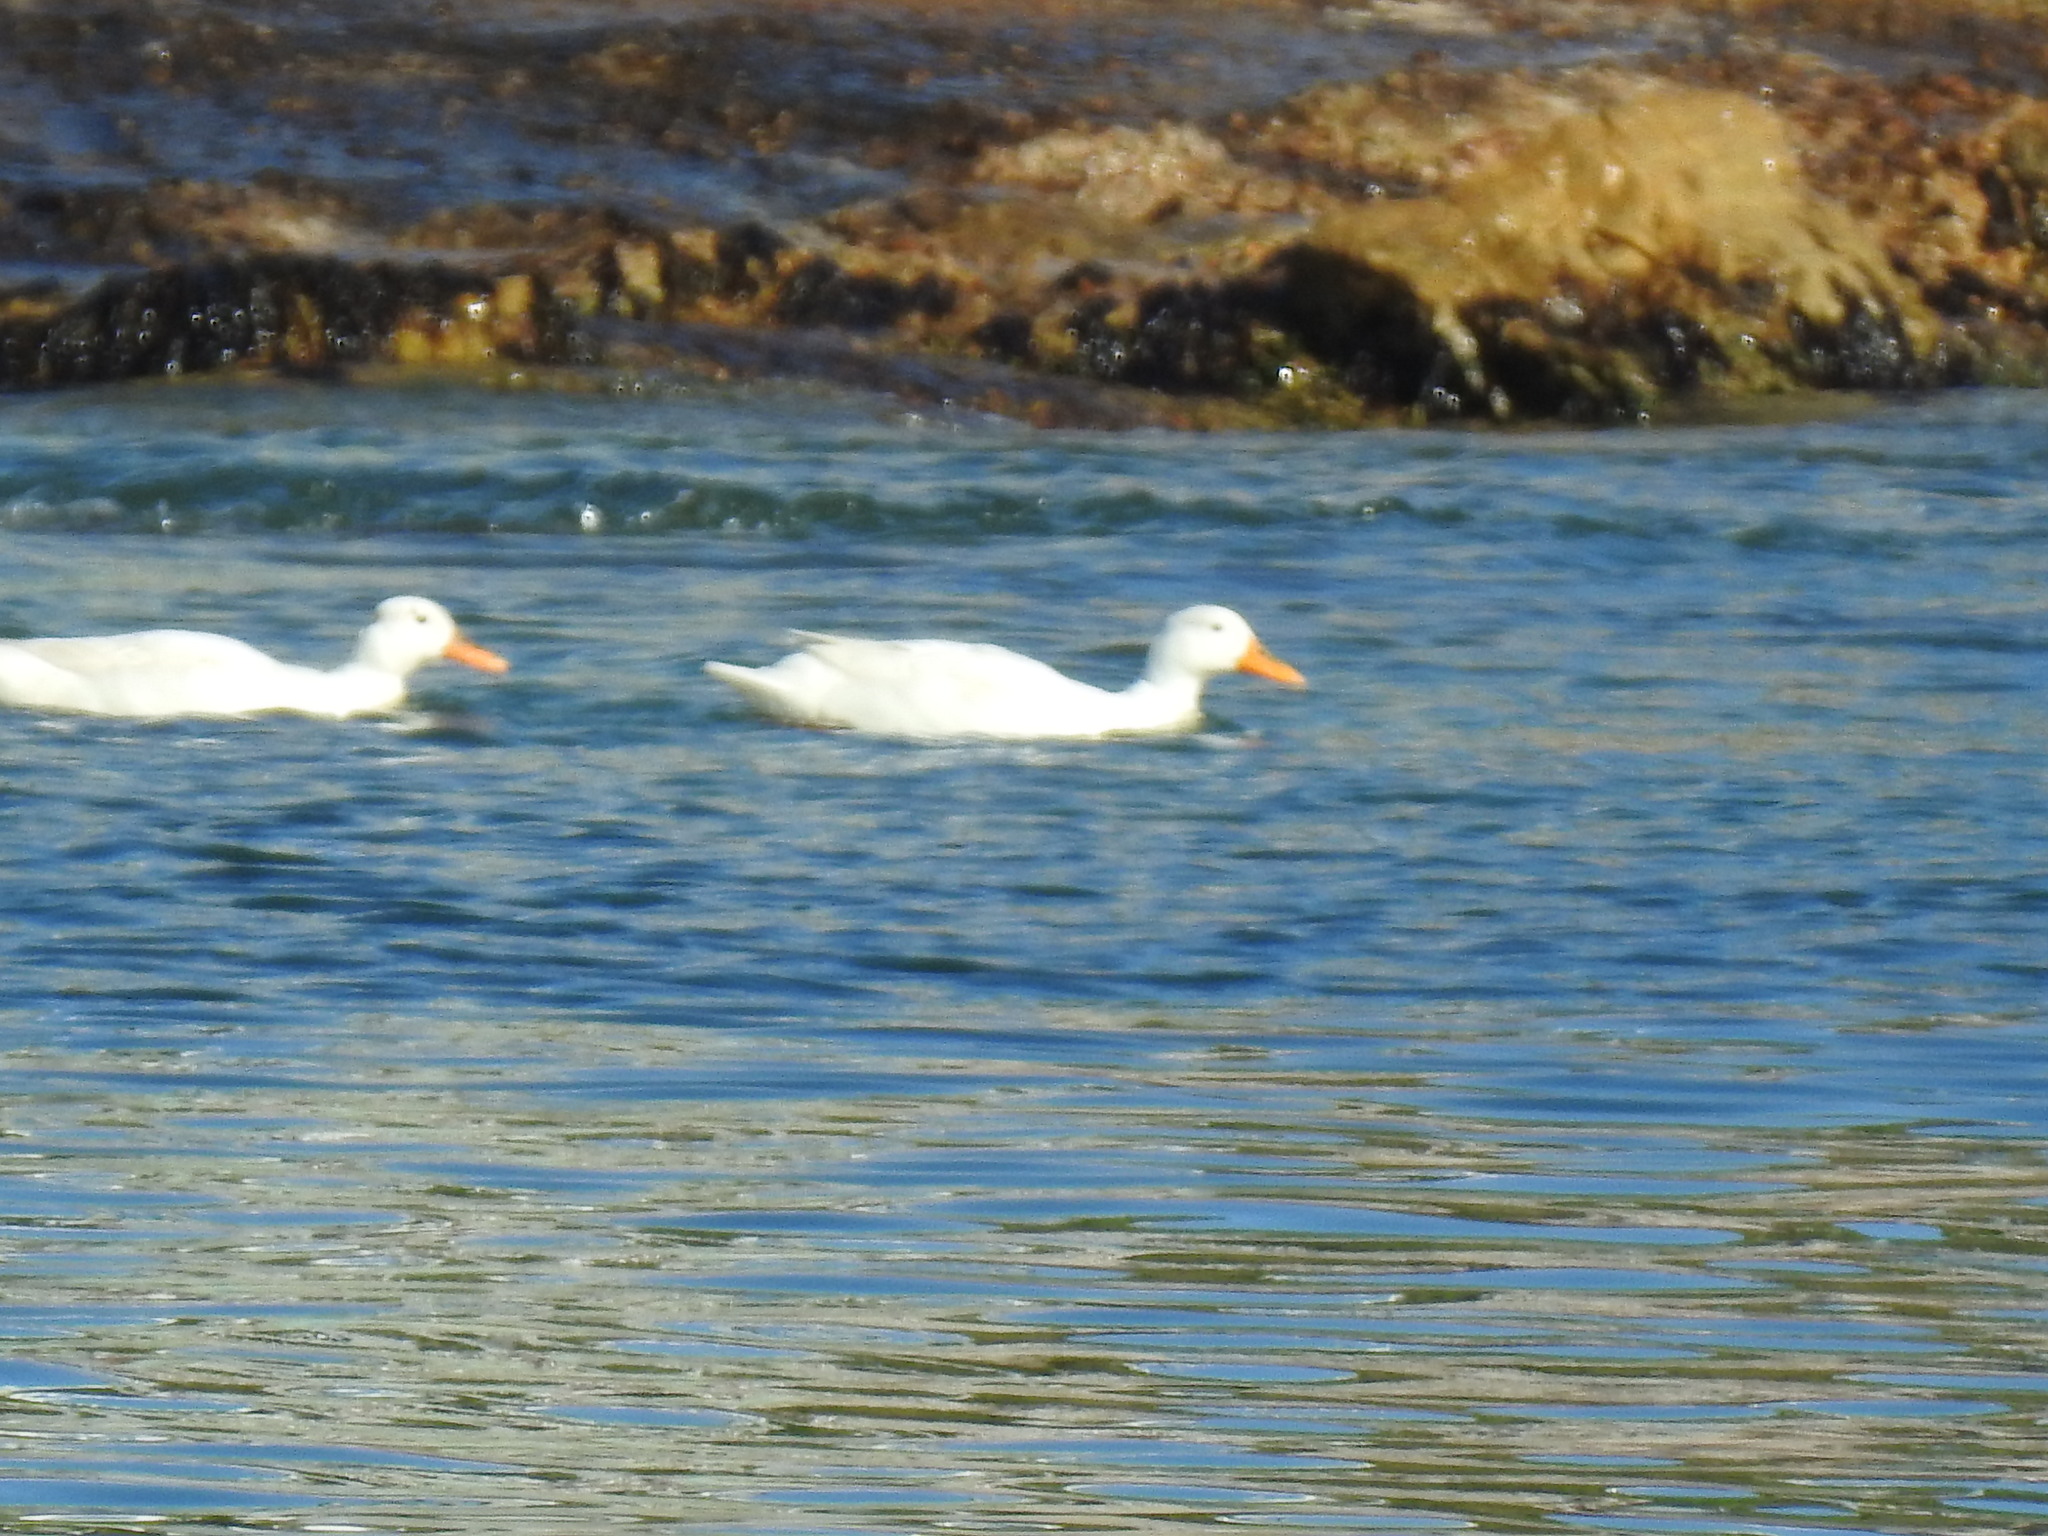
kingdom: Animalia
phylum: Chordata
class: Aves
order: Anseriformes
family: Anatidae
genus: Anas
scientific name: Anas platyrhynchos
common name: Mallard
